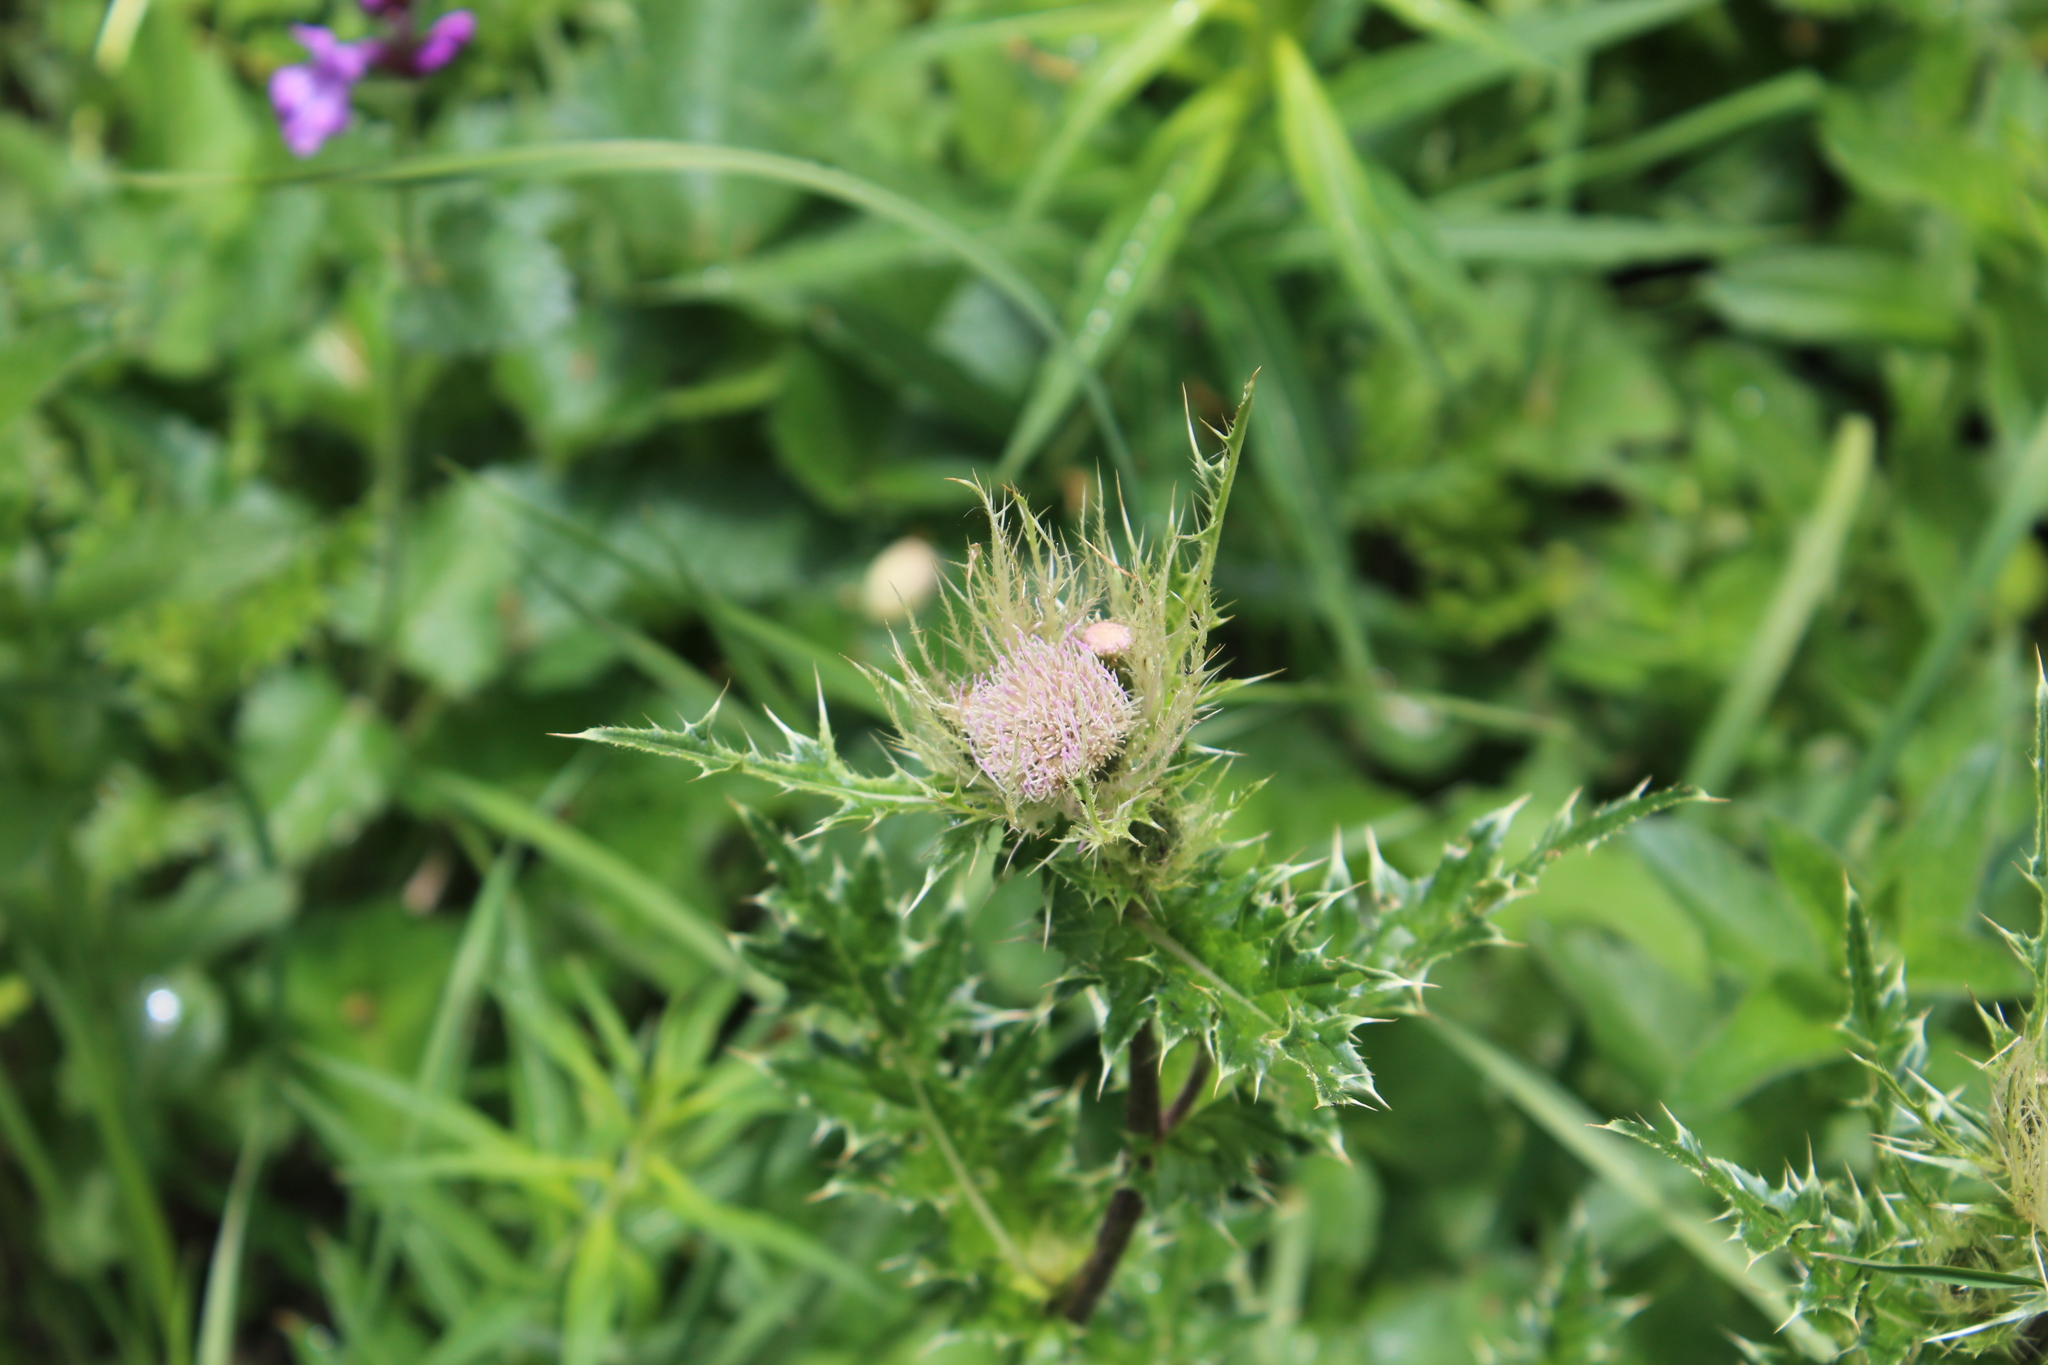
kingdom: Plantae
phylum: Tracheophyta
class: Magnoliopsida
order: Asterales
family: Asteraceae
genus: Cirsium
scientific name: Cirsium obvallatum
